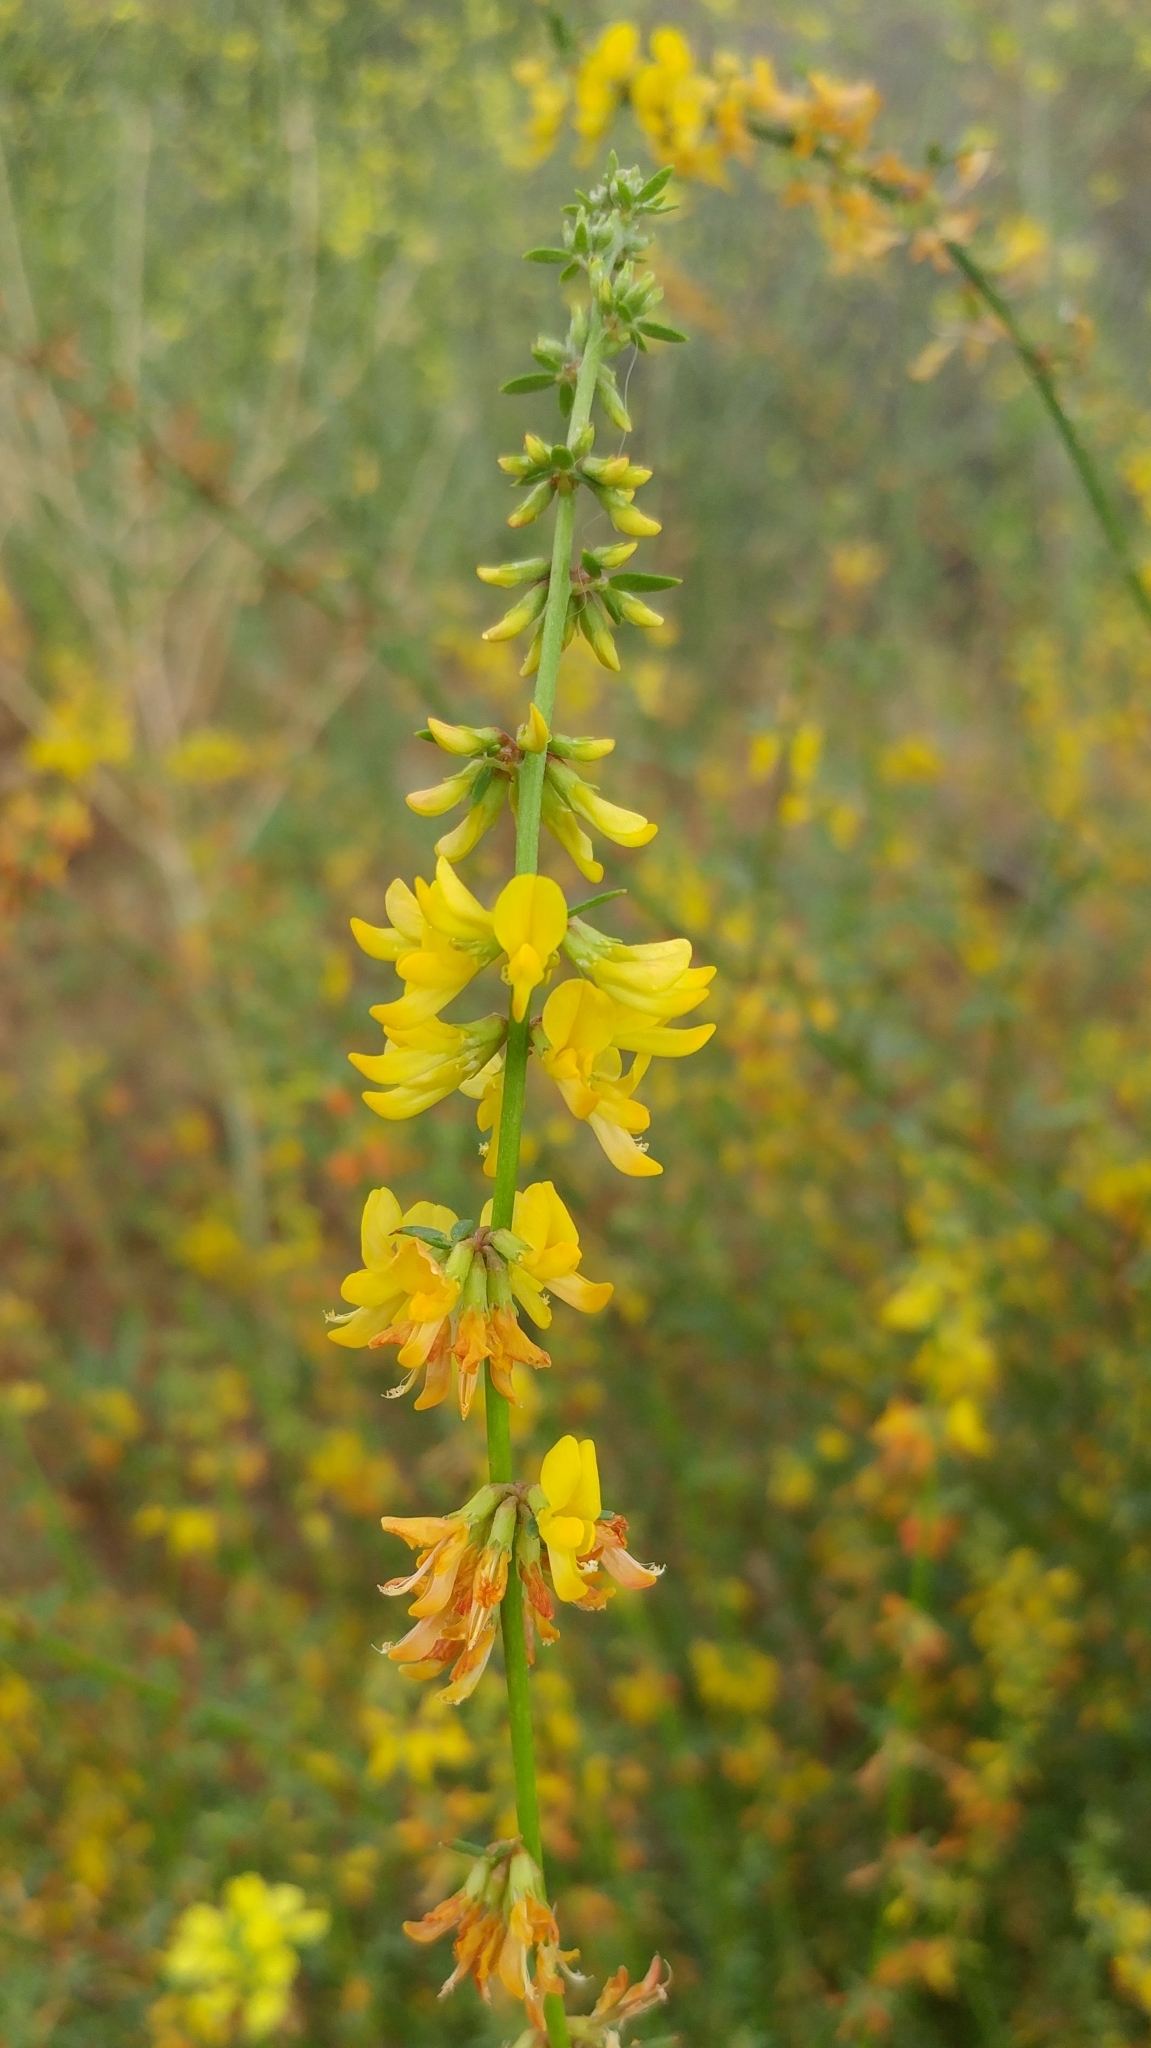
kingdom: Plantae
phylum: Tracheophyta
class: Magnoliopsida
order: Fabales
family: Fabaceae
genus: Acmispon
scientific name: Acmispon glaber
